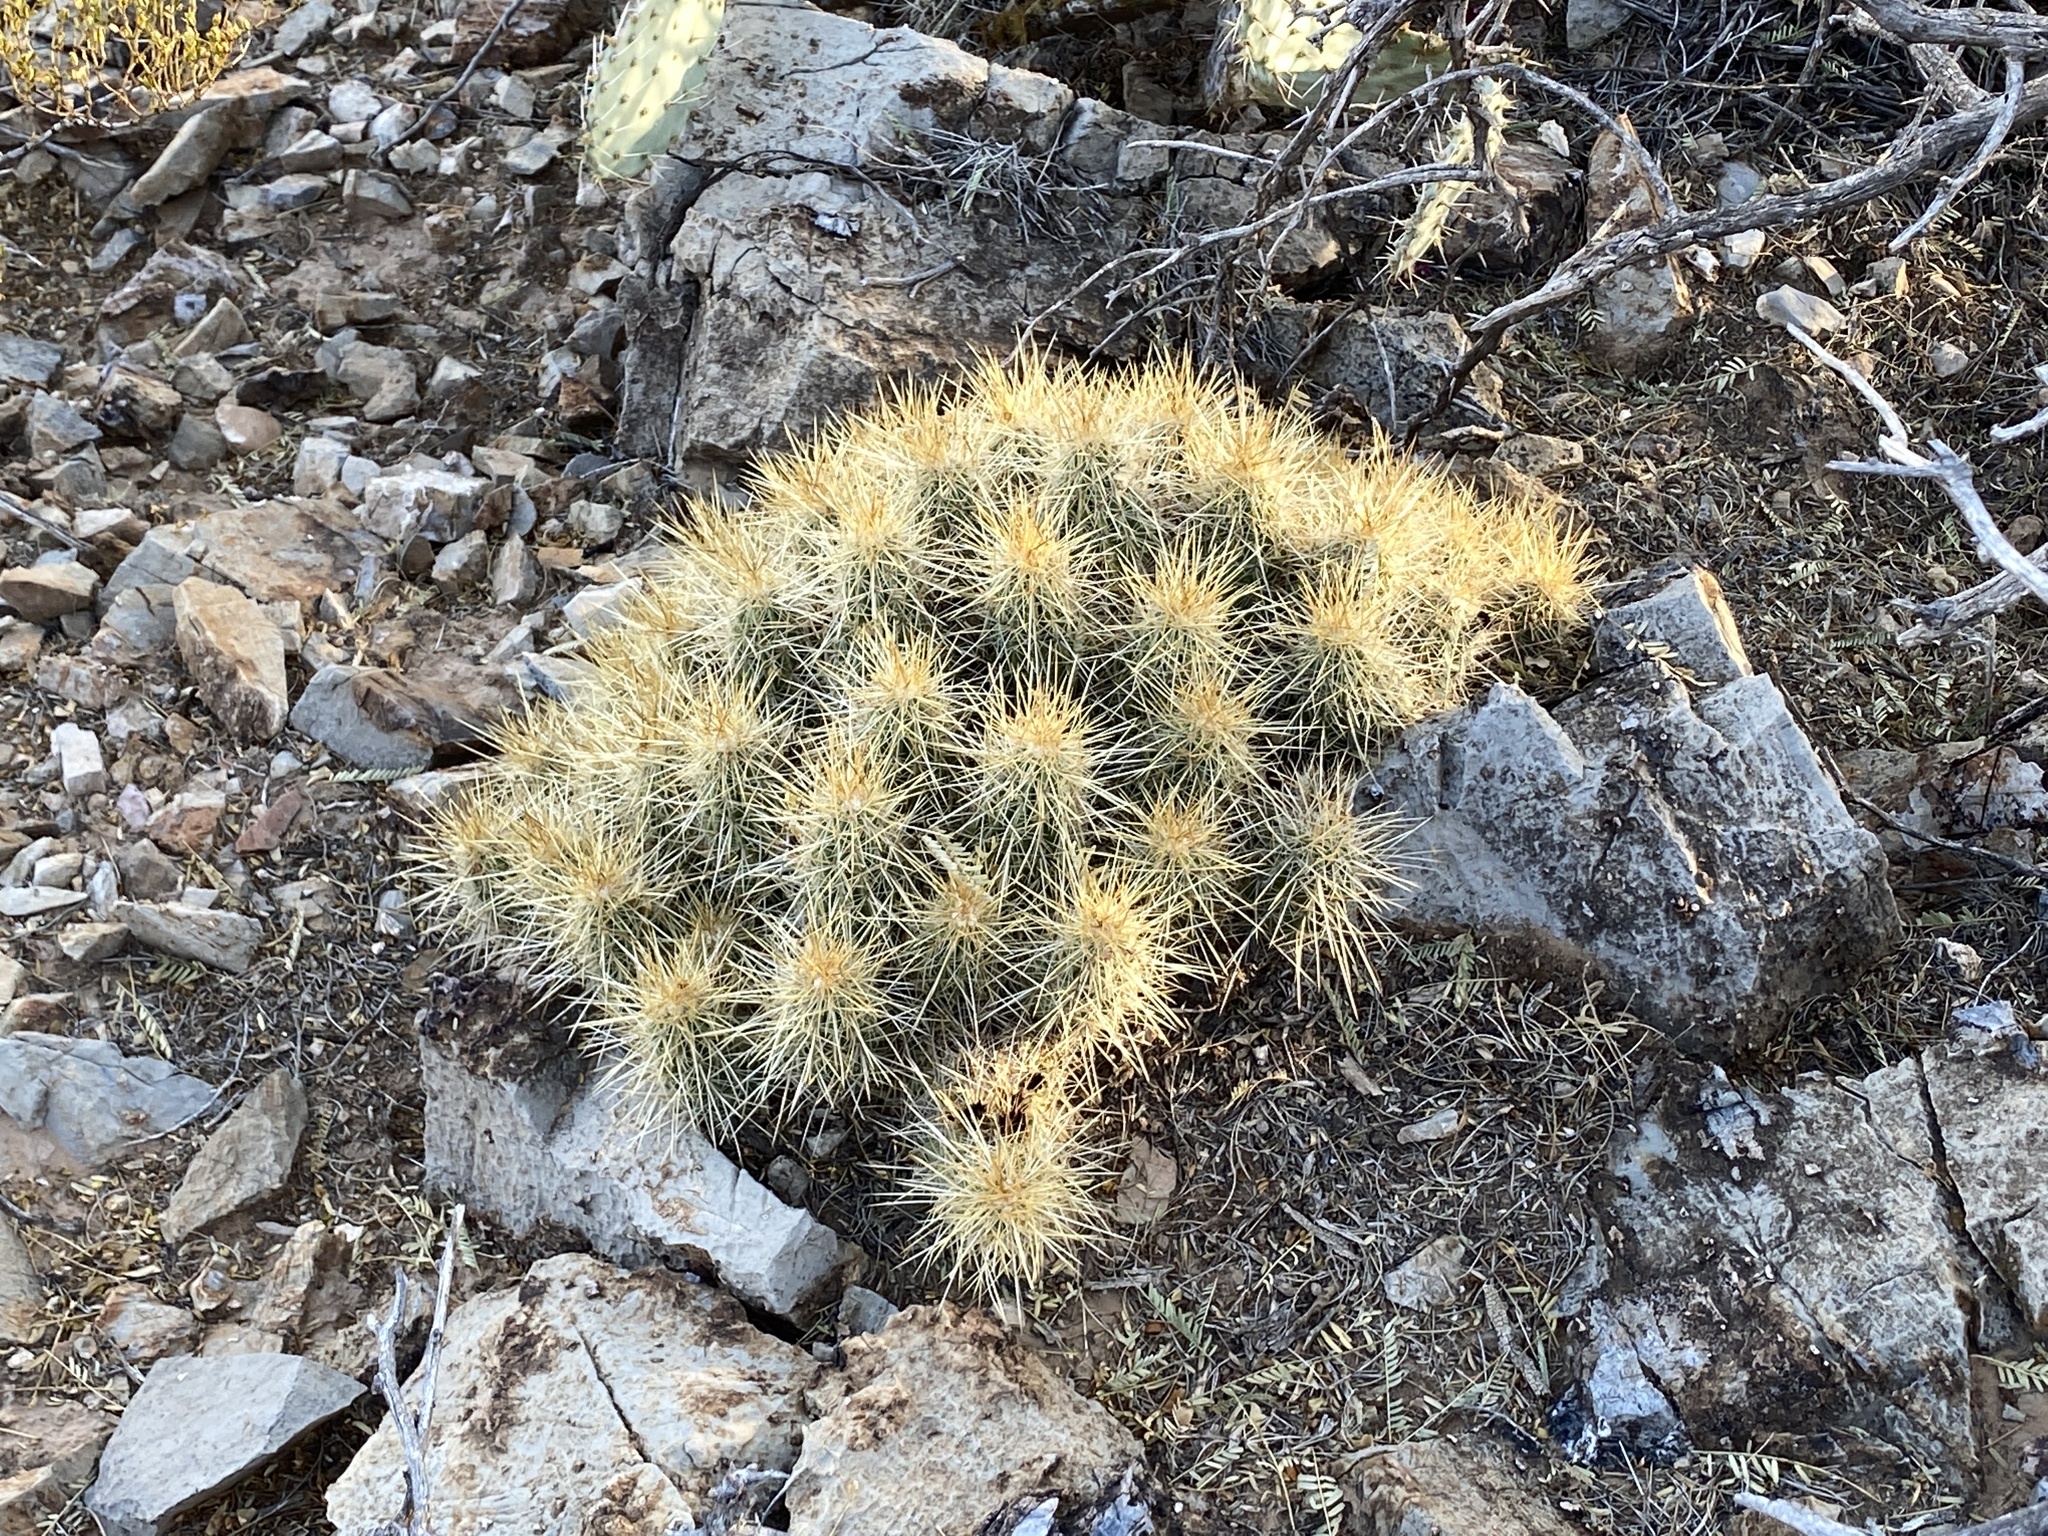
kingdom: Plantae
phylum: Tracheophyta
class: Magnoliopsida
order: Caryophyllales
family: Cactaceae
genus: Echinocereus
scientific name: Echinocereus stramineus
